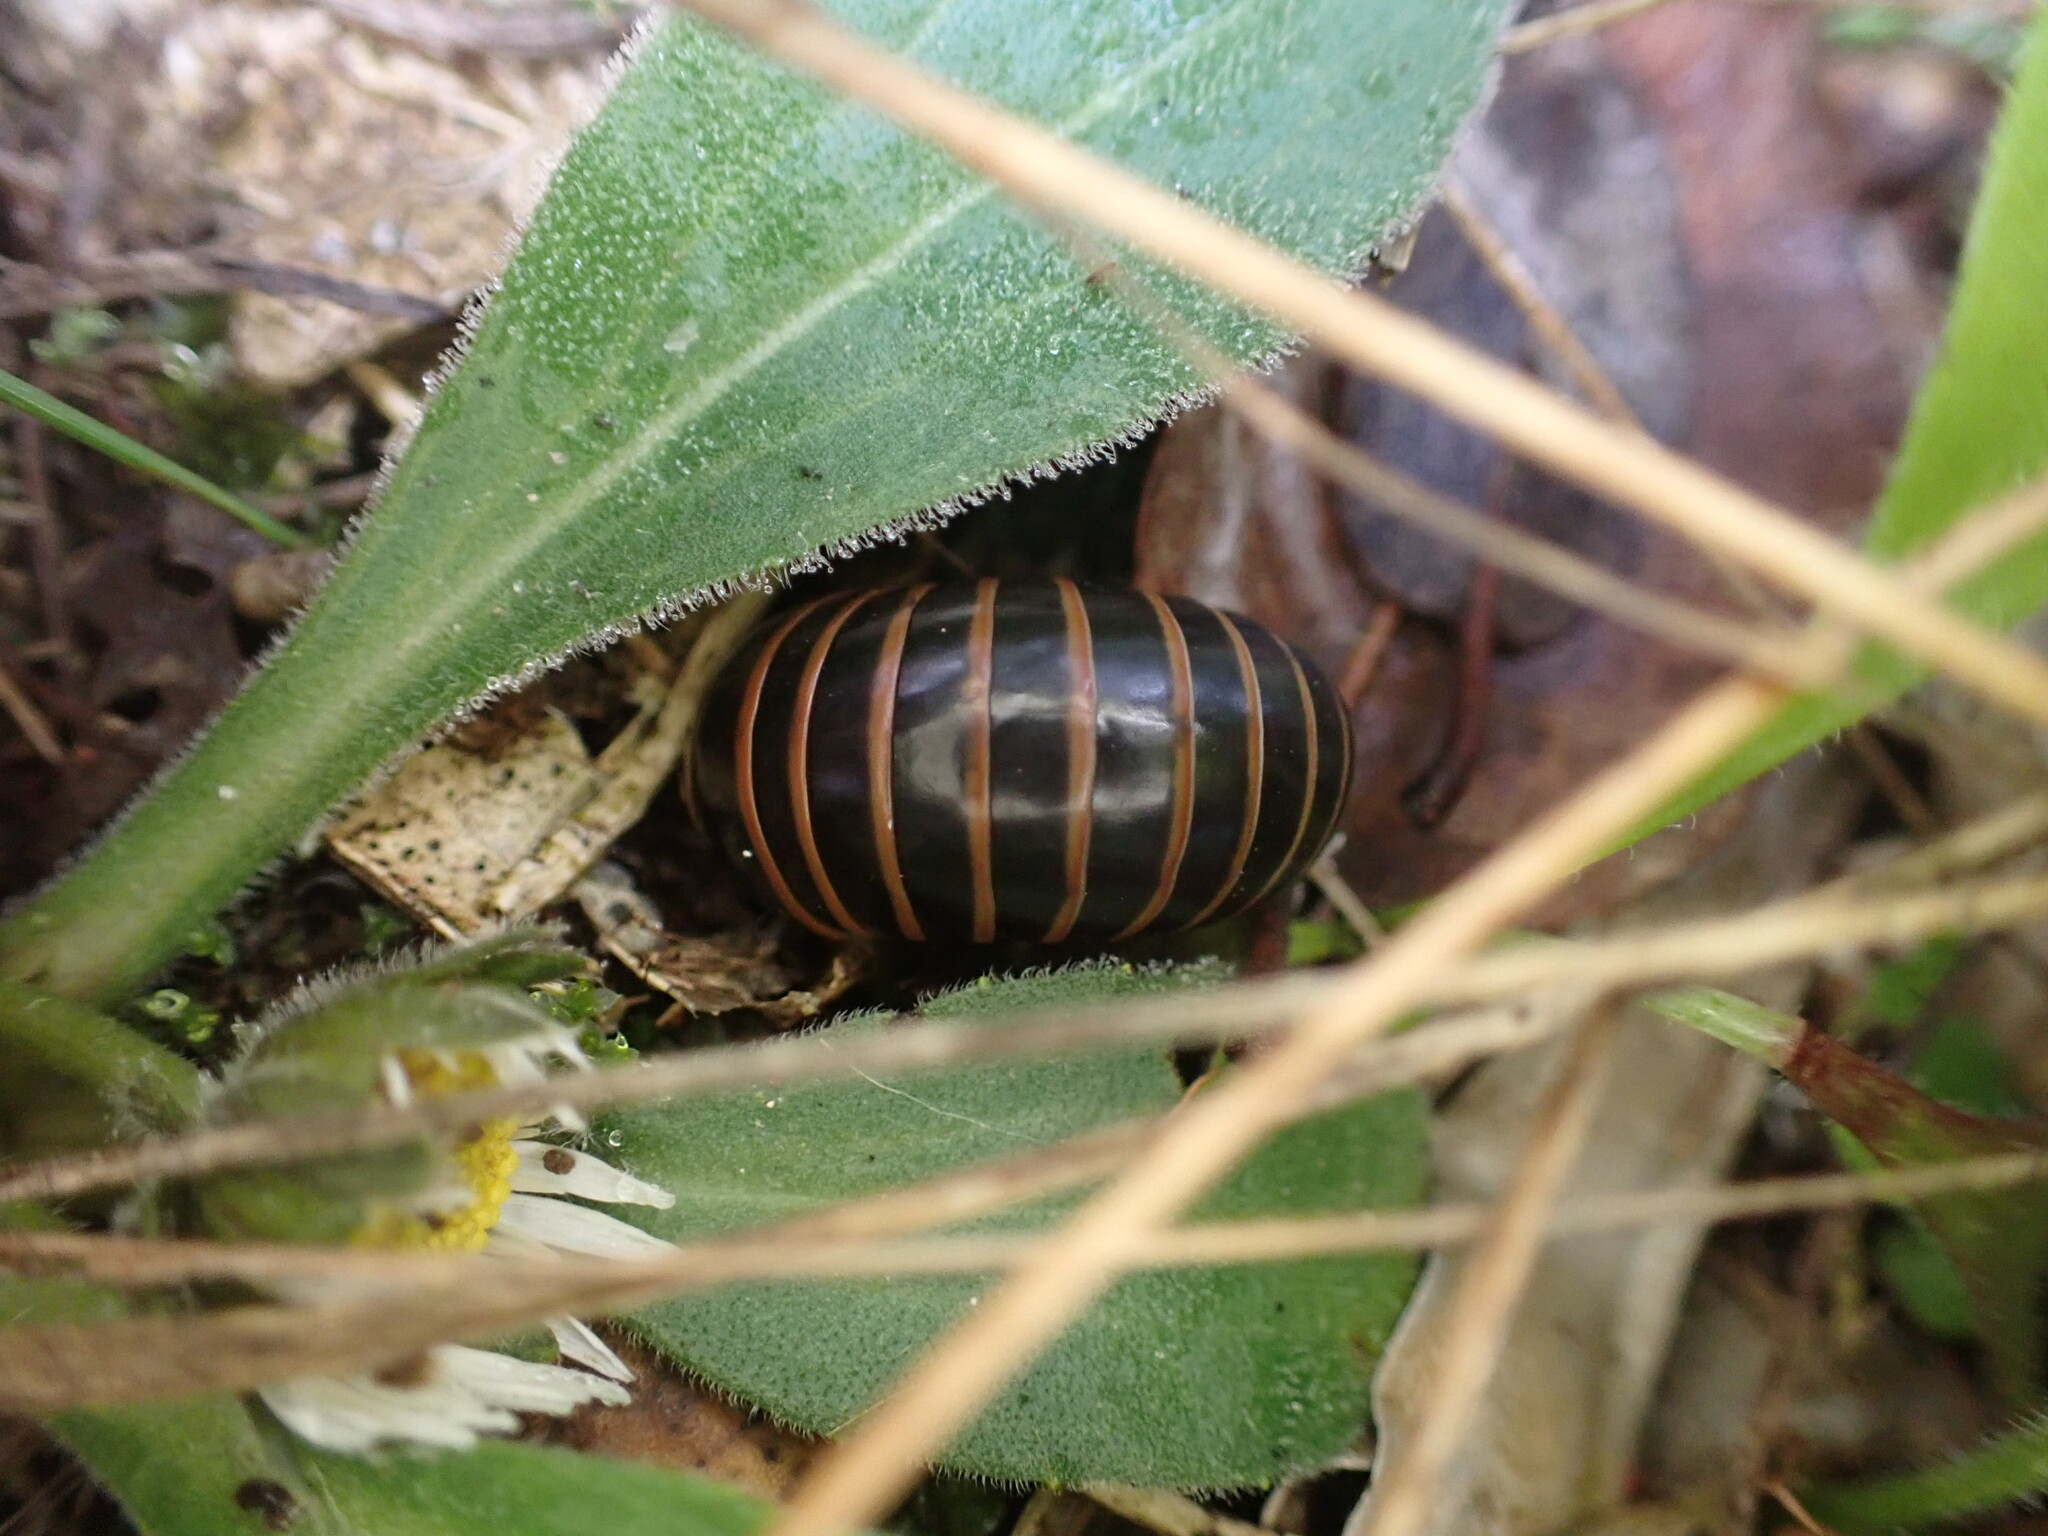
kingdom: Animalia
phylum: Arthropoda
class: Diplopoda
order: Glomerida
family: Glomeridae
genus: Glomeris
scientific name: Glomeris marginata
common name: Bordered pill millipede
